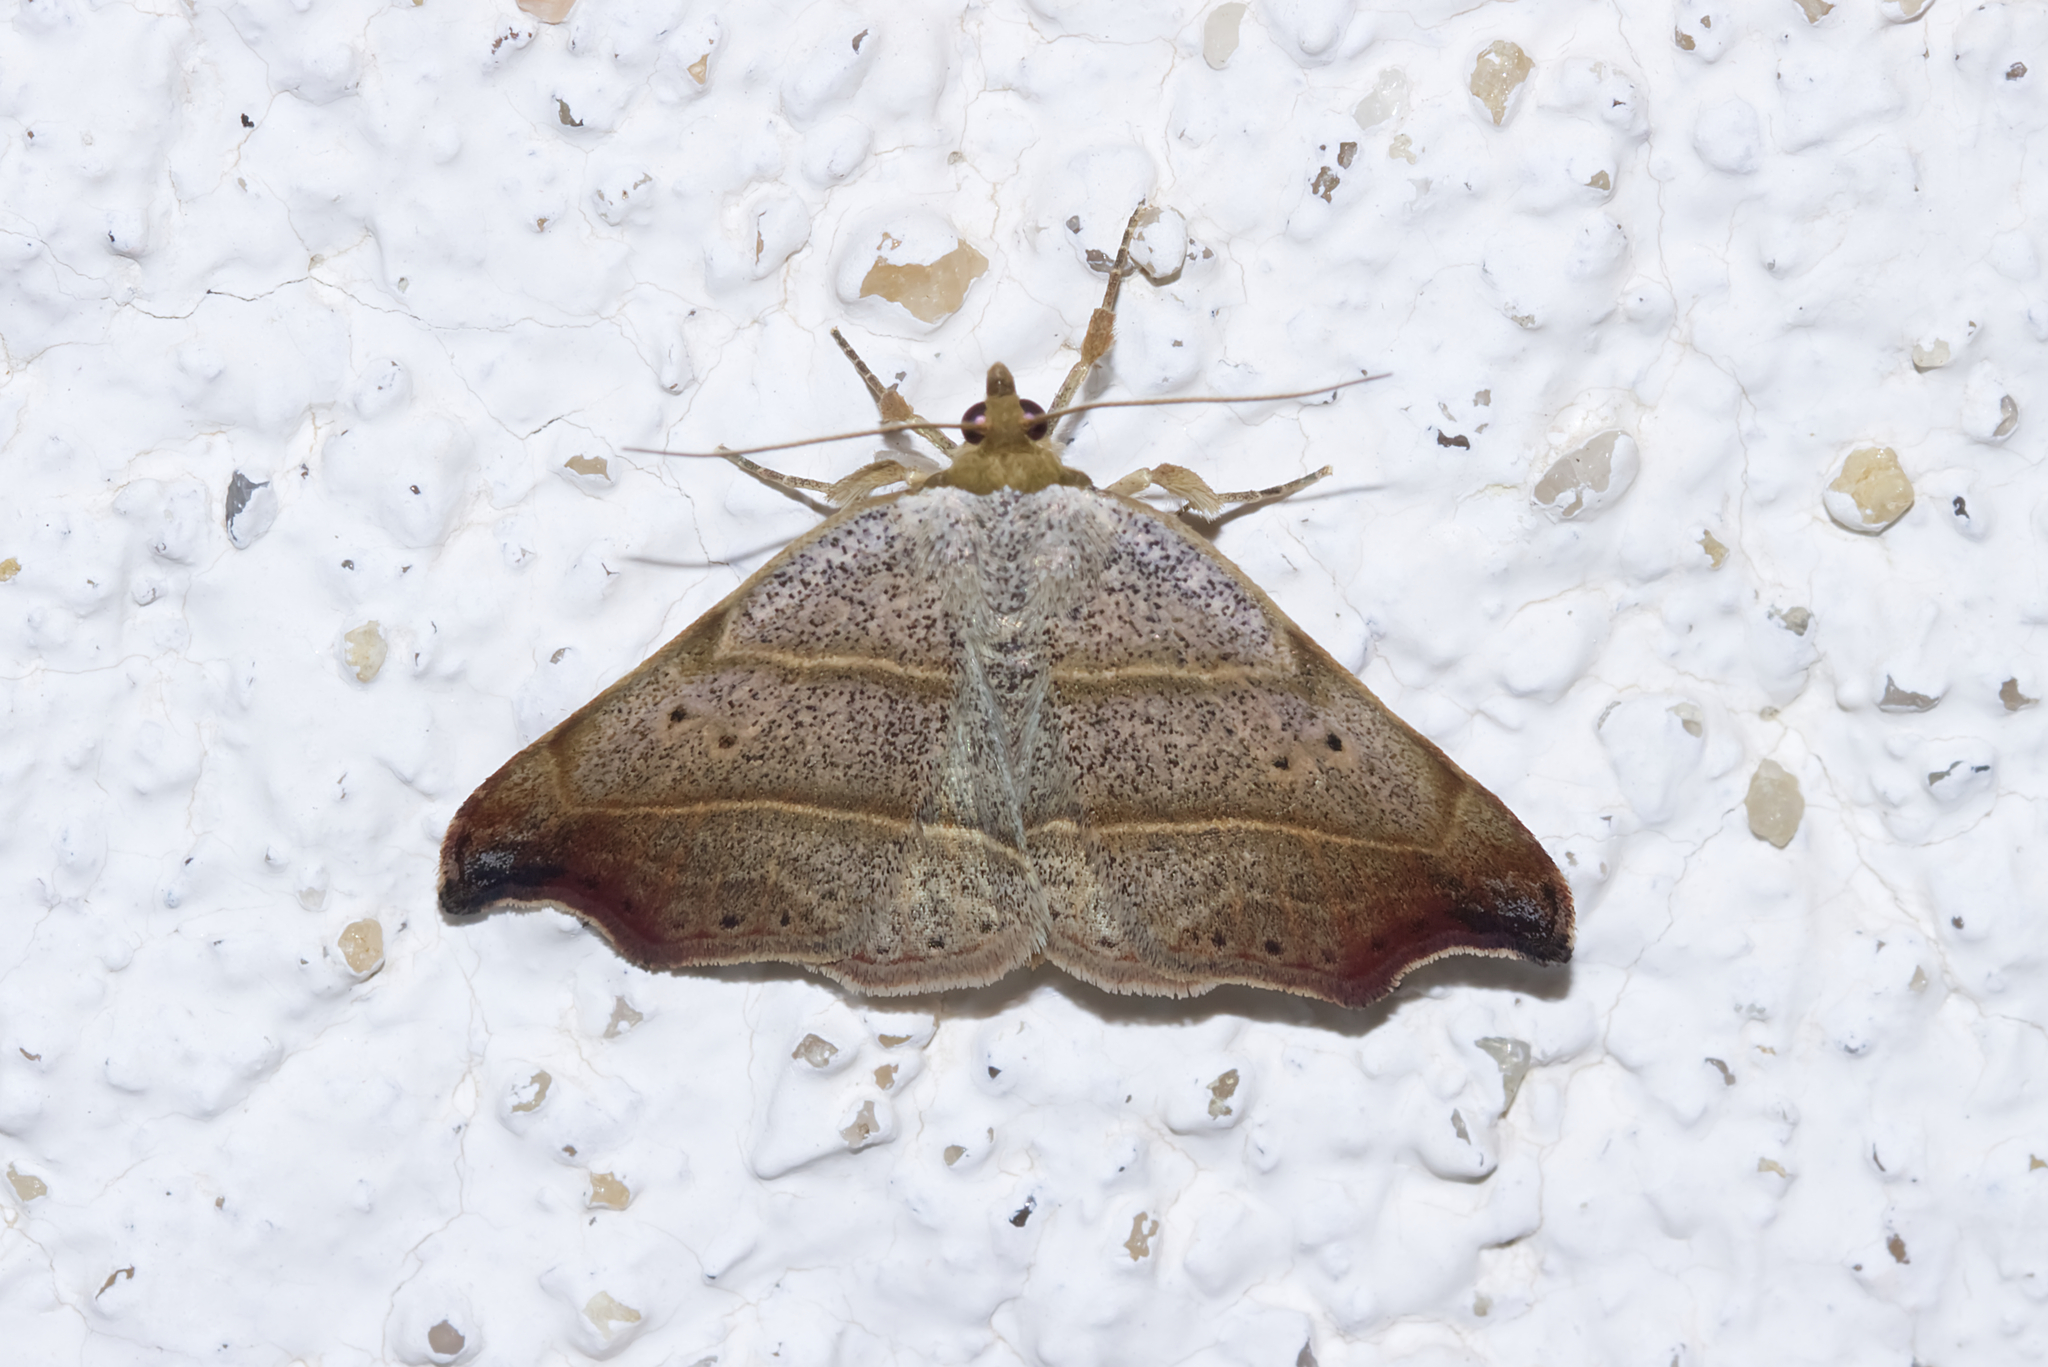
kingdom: Animalia
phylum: Arthropoda
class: Insecta
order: Lepidoptera
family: Erebidae
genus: Laspeyria
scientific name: Laspeyria flexula
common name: Beautiful hook-tip
